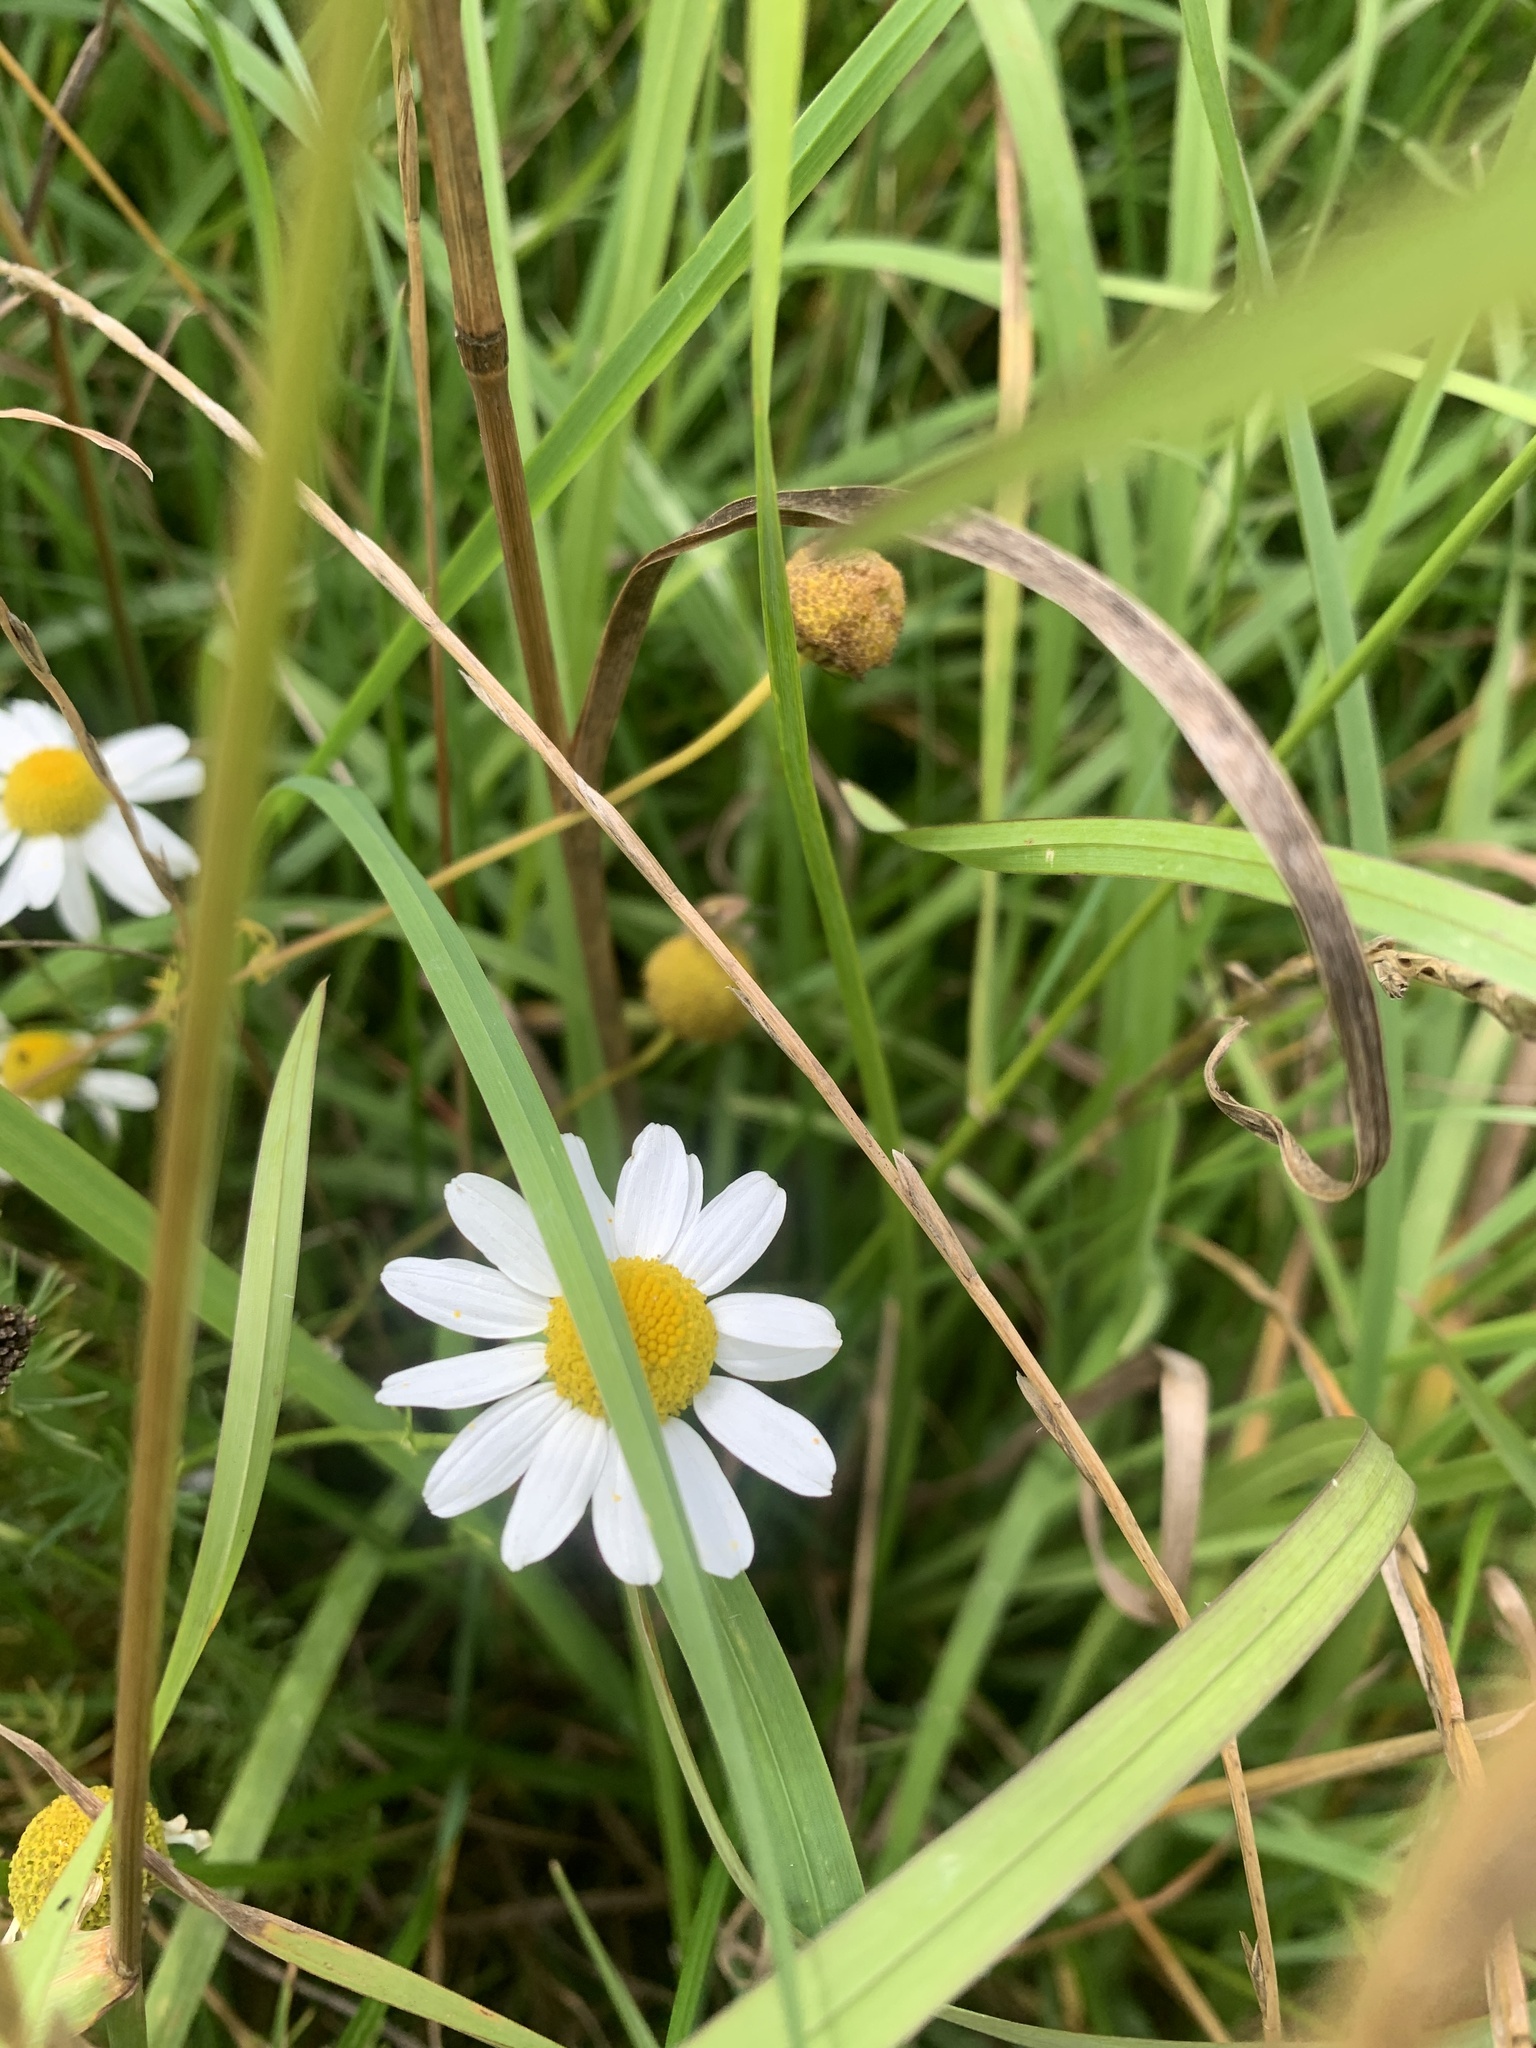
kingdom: Plantae
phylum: Tracheophyta
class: Magnoliopsida
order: Asterales
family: Asteraceae
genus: Leucanthemum
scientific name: Leucanthemum vulgare
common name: Oxeye daisy
